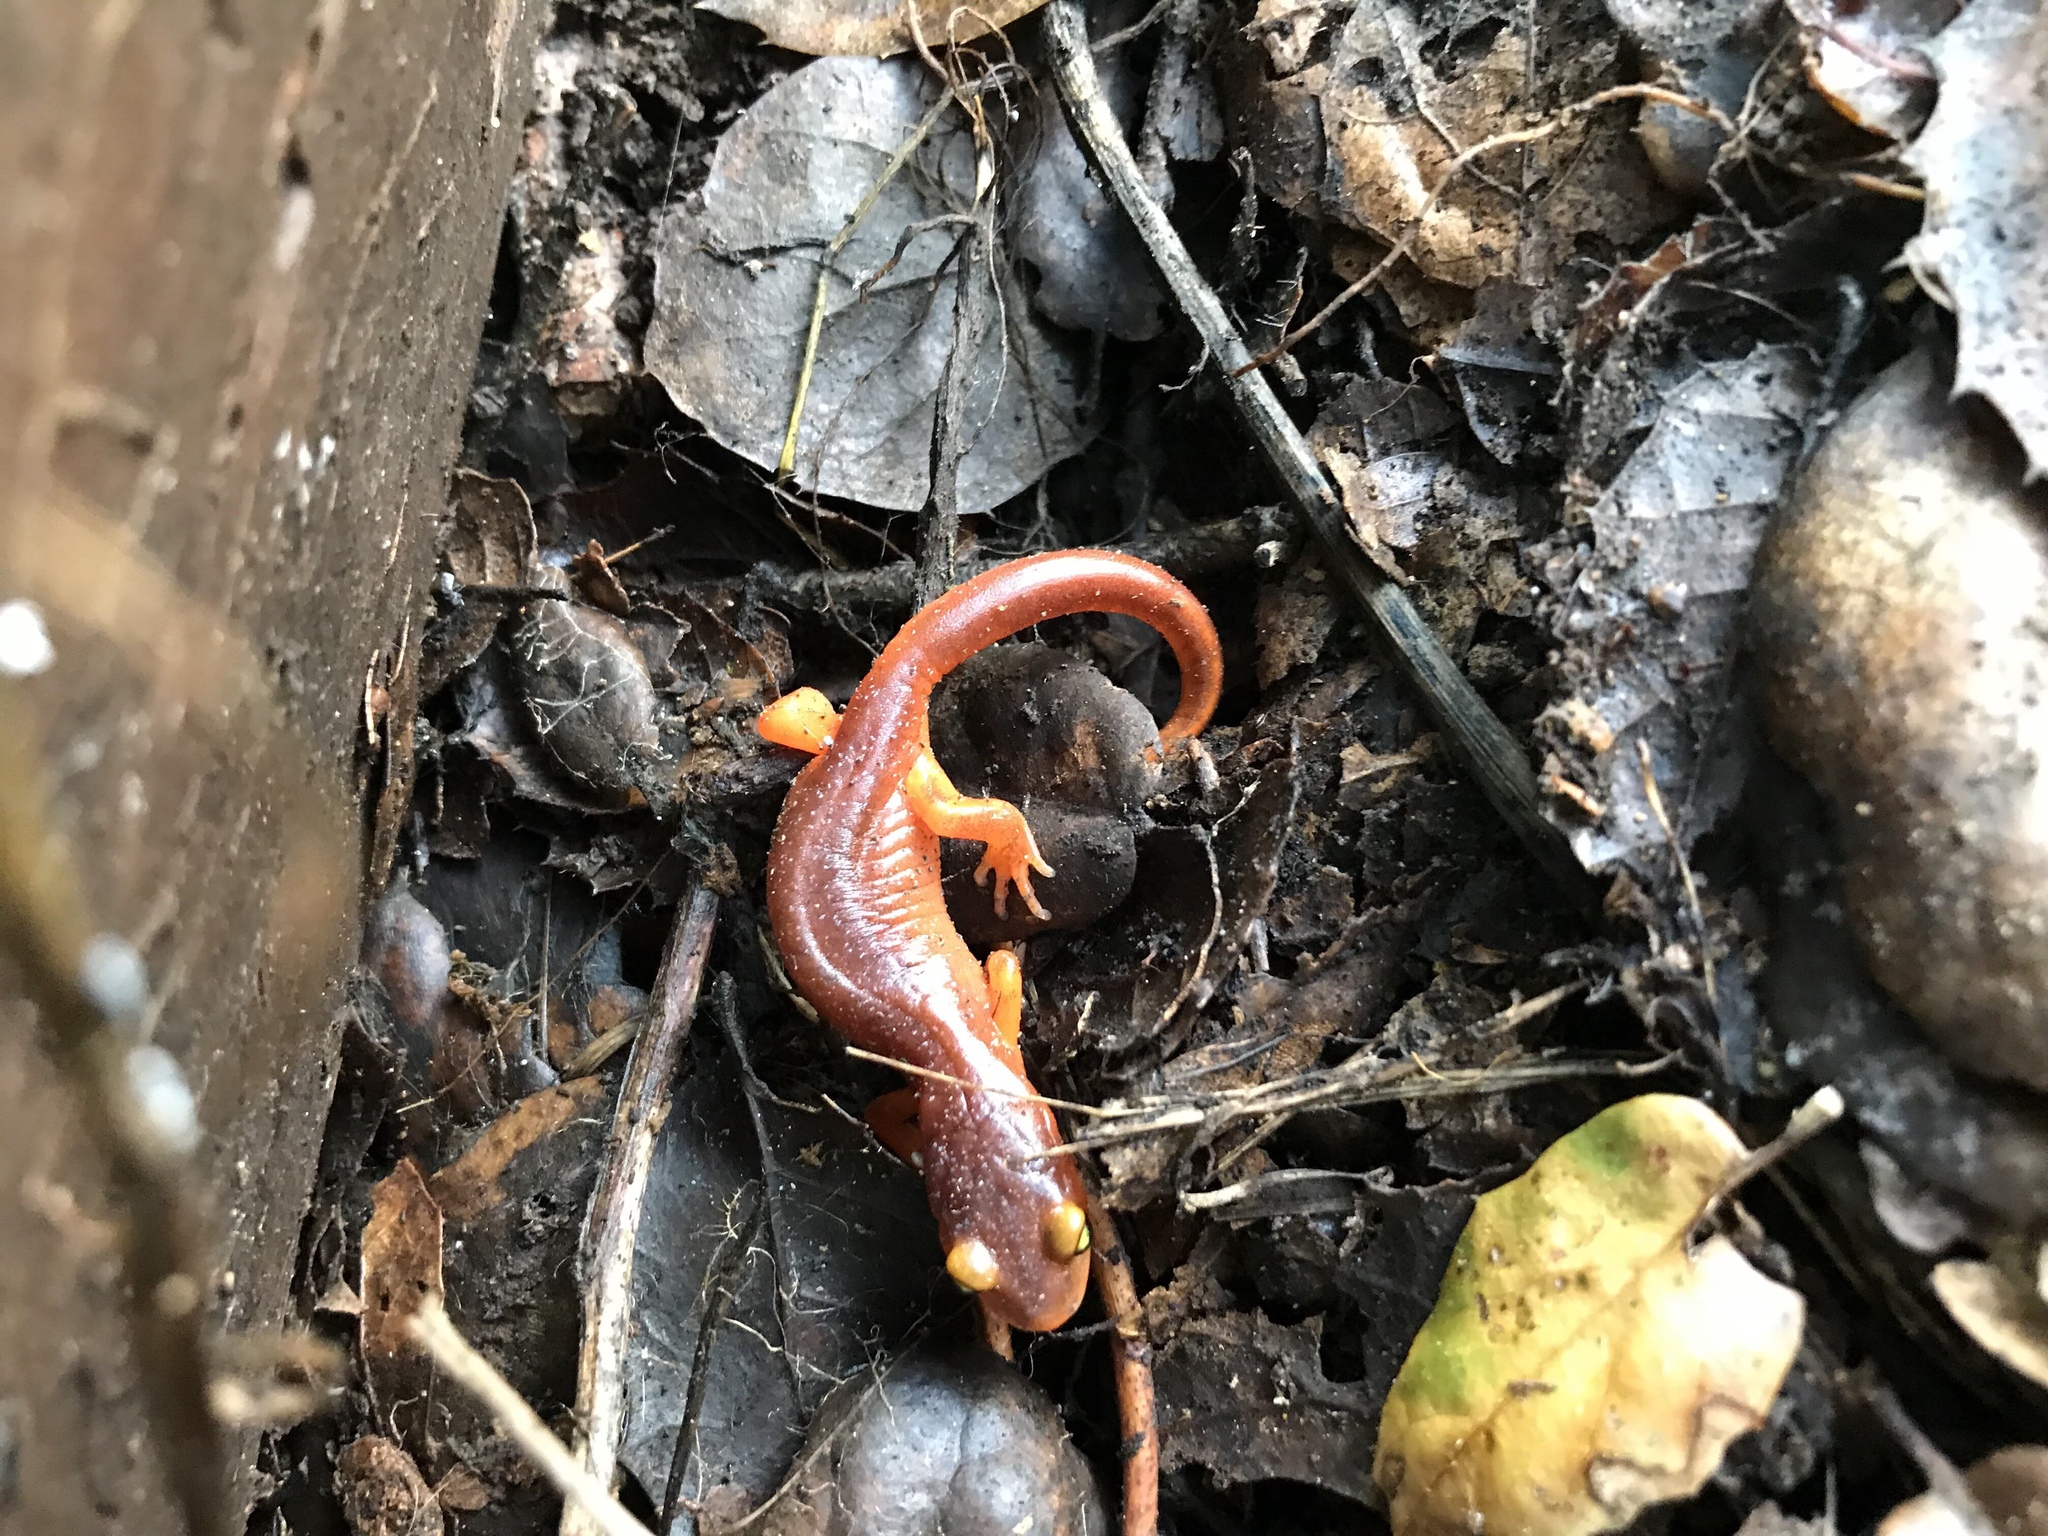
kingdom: Animalia
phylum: Chordata
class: Amphibia
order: Caudata
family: Plethodontidae
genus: Ensatina
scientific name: Ensatina eschscholtzii
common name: Ensatina
